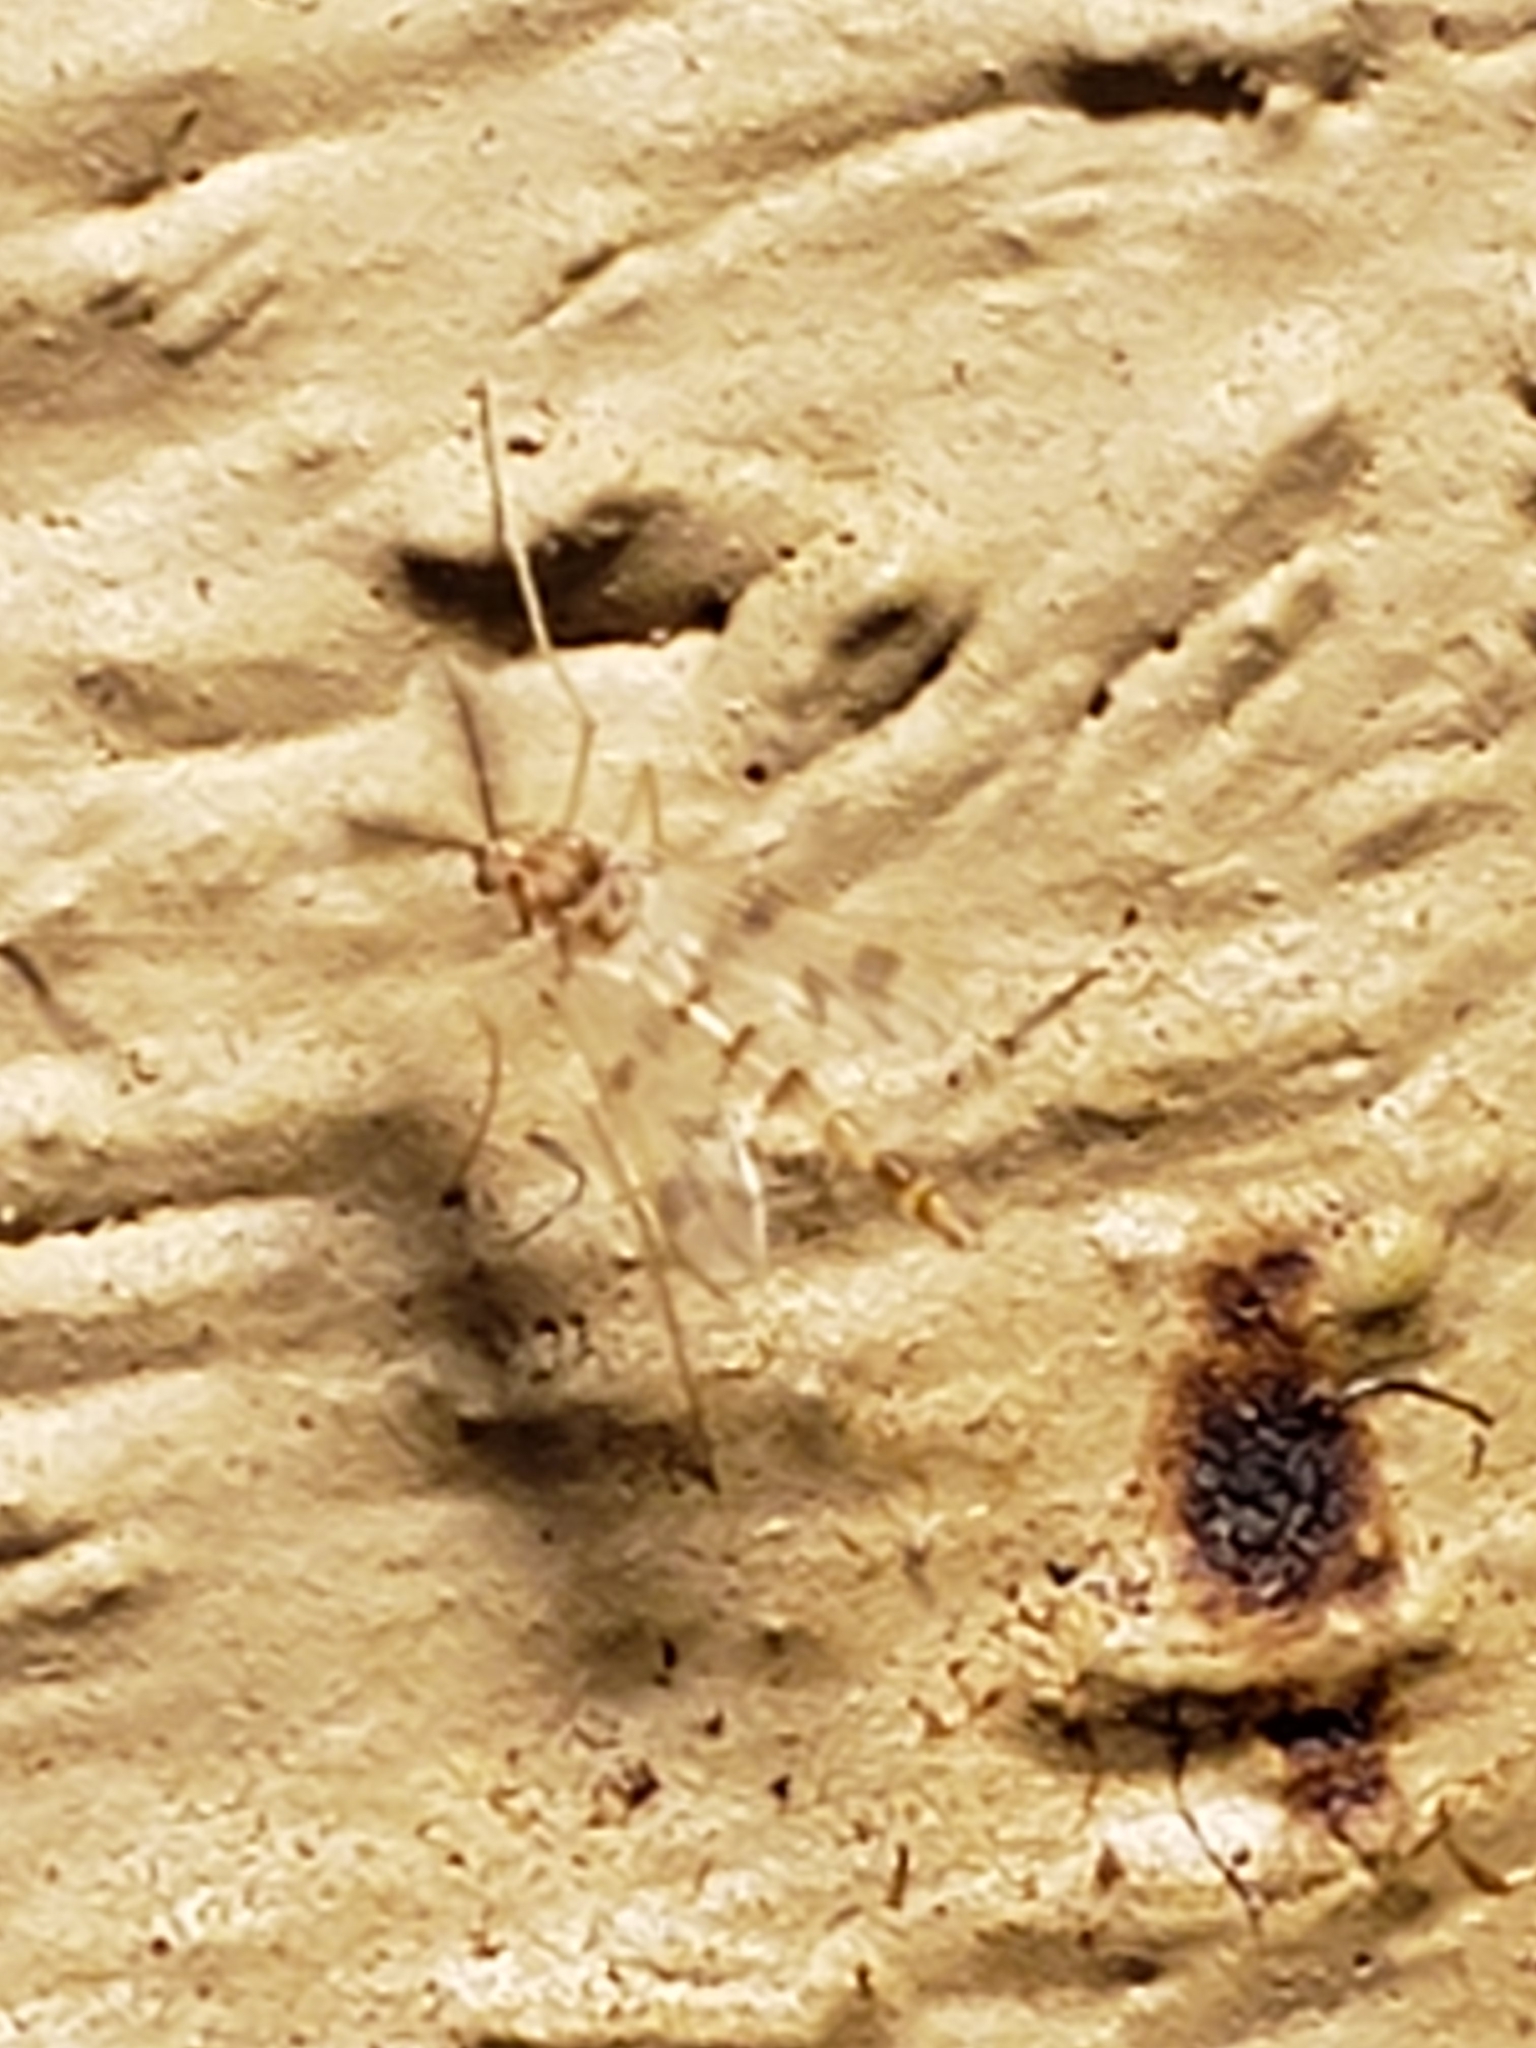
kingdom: Animalia
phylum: Arthropoda
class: Insecta
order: Diptera
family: Chironomidae
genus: Zavrelimyia
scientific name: Zavrelimyia sinuosa
